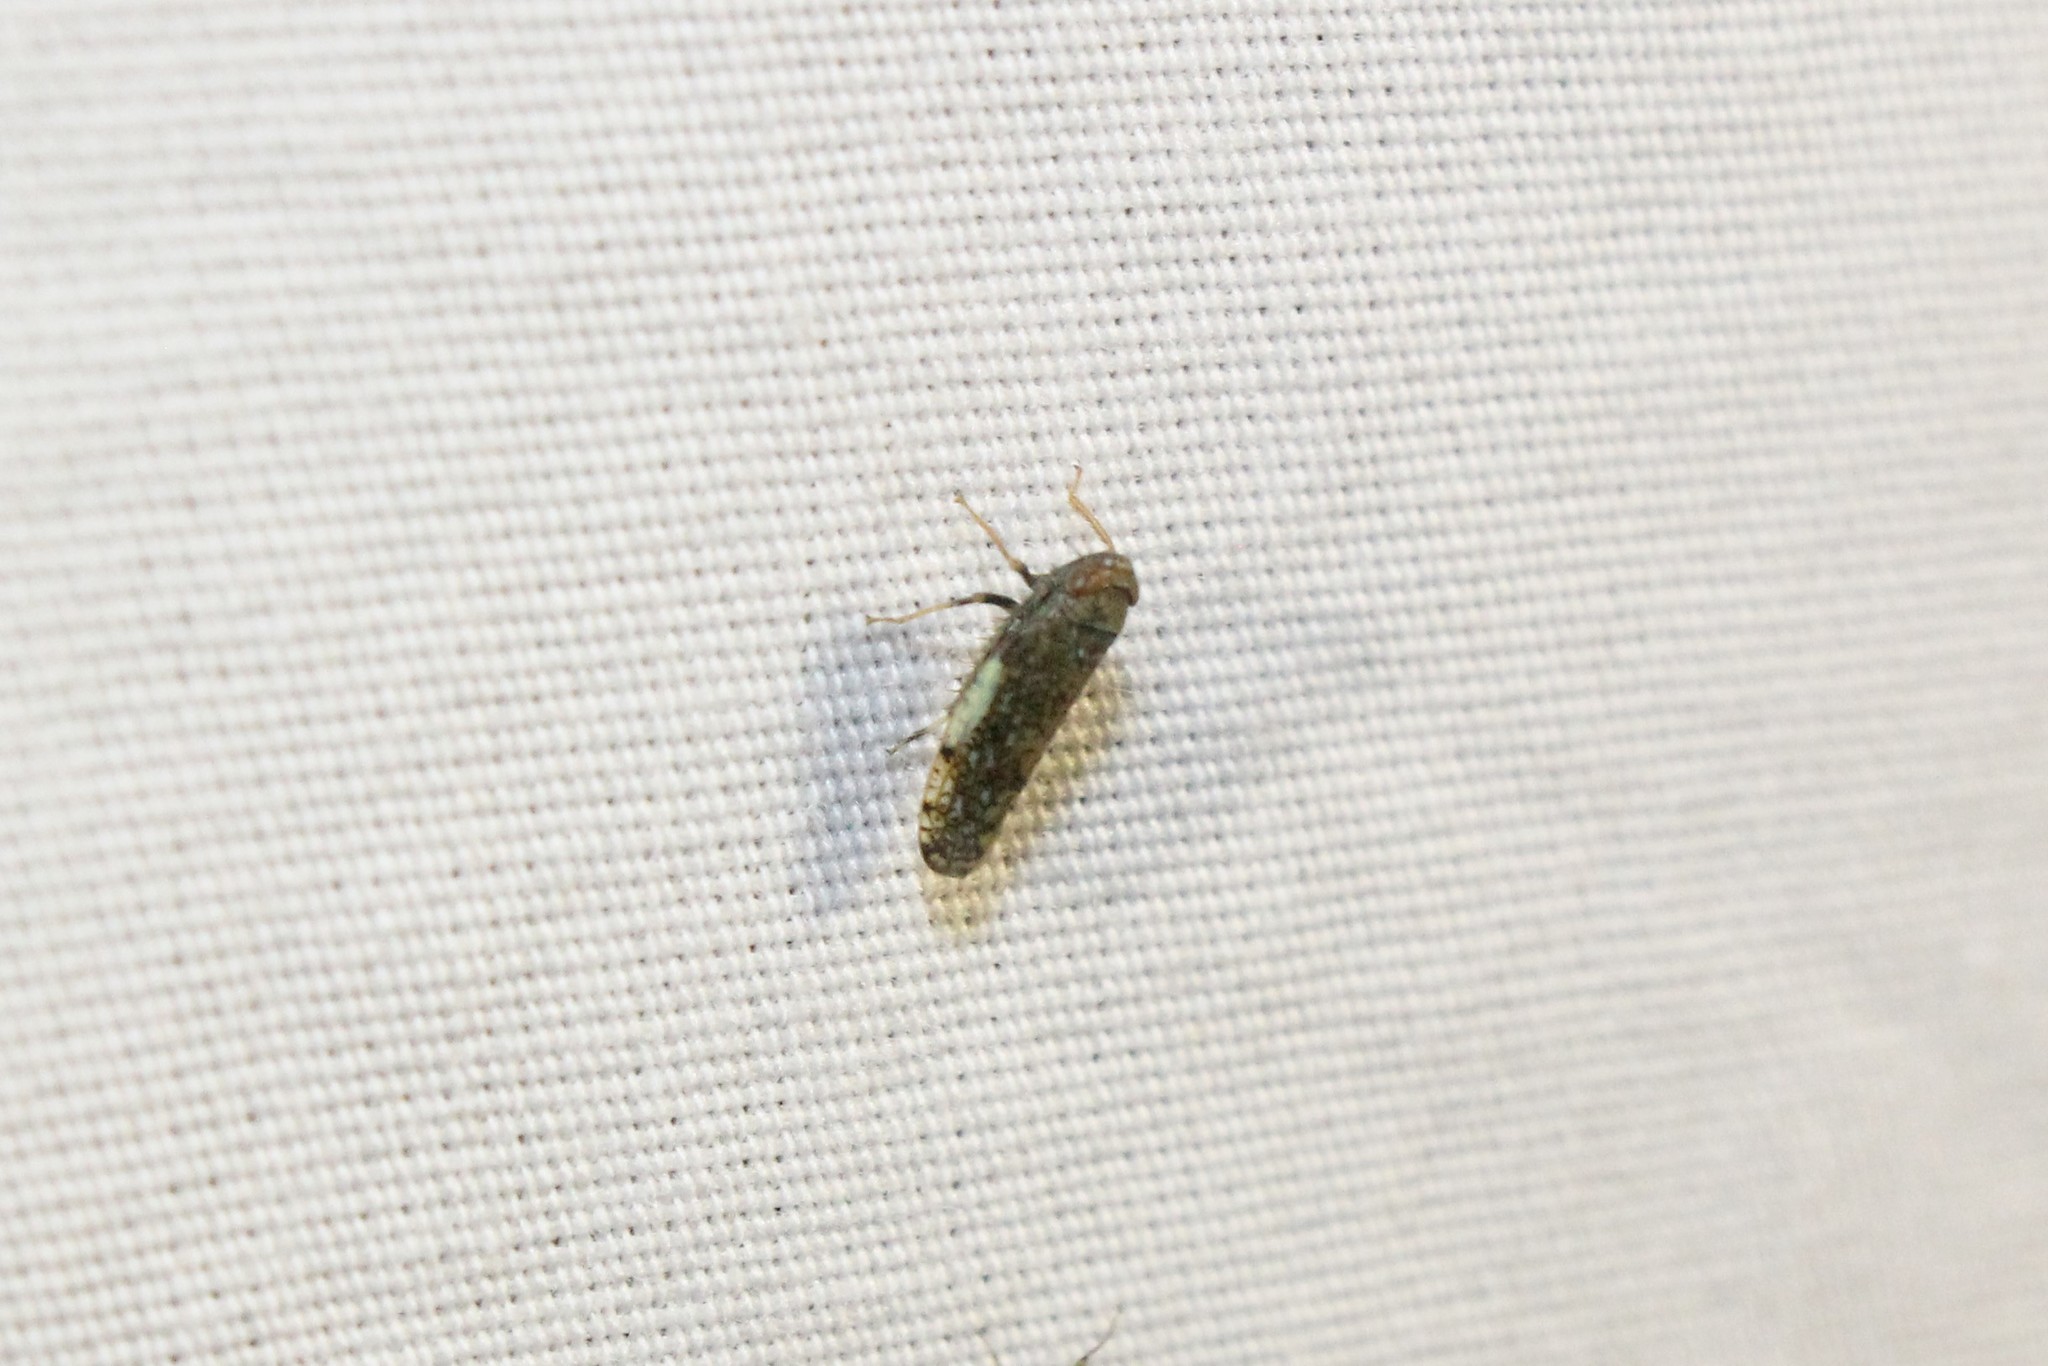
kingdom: Animalia
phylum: Arthropoda
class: Insecta
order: Hemiptera
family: Cicadellidae
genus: Orientus
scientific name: Orientus ishidae
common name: Japanese leafhopper
